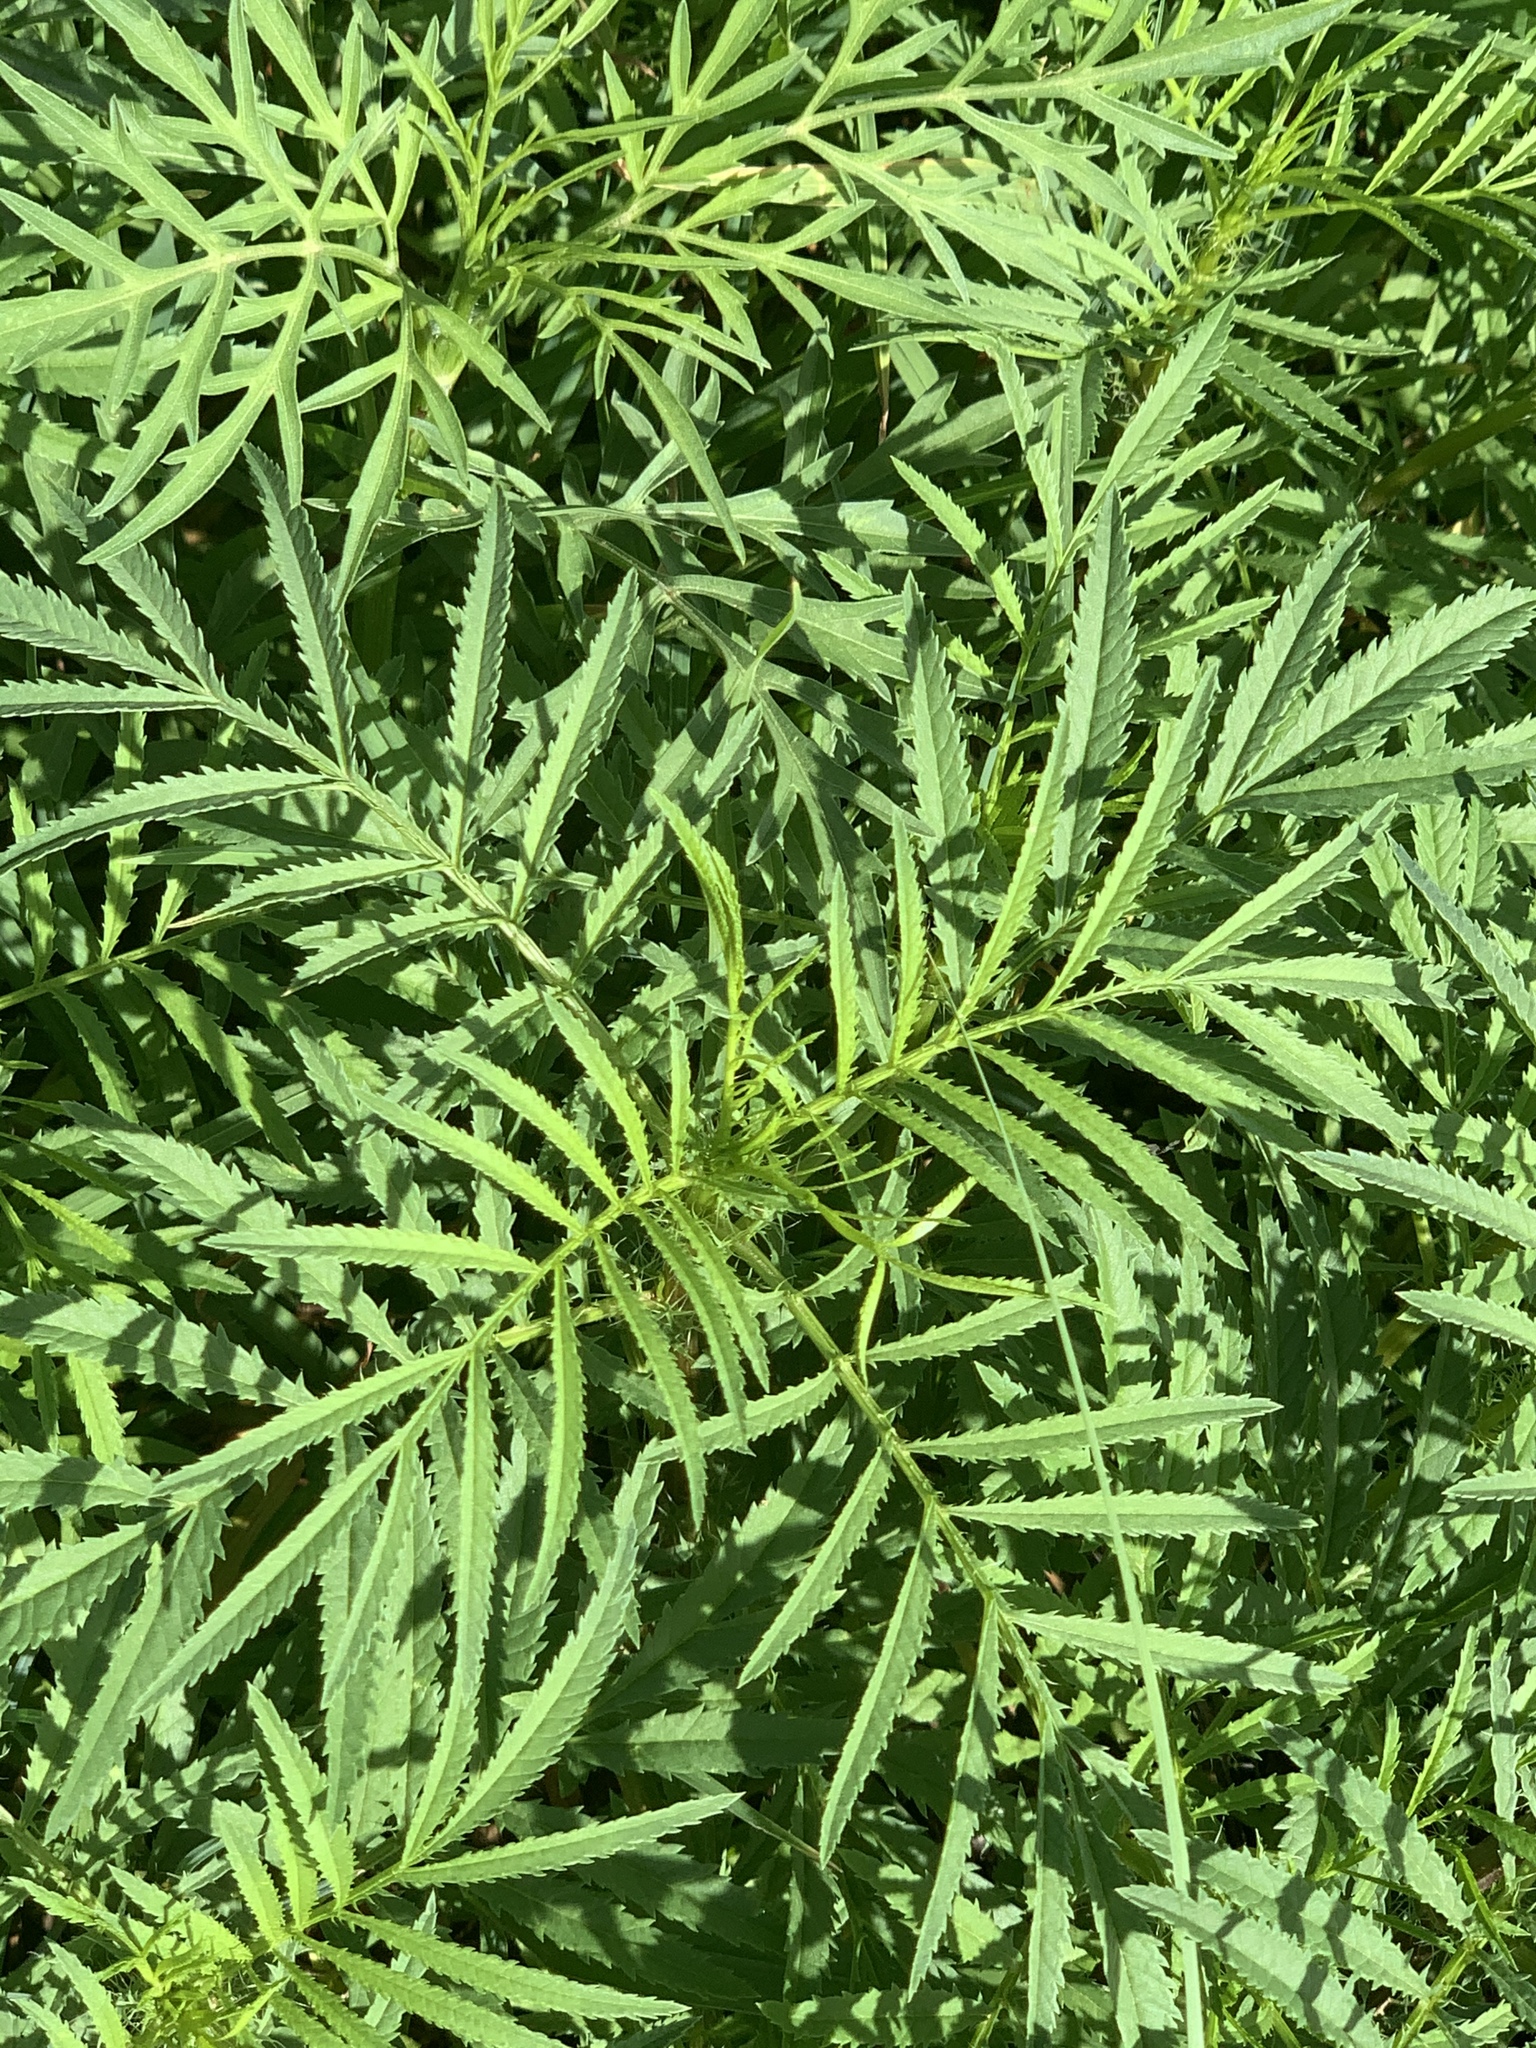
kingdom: Plantae
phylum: Tracheophyta
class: Magnoliopsida
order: Asterales
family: Asteraceae
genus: Tagetes
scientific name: Tagetes minuta
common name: Muster john henry
